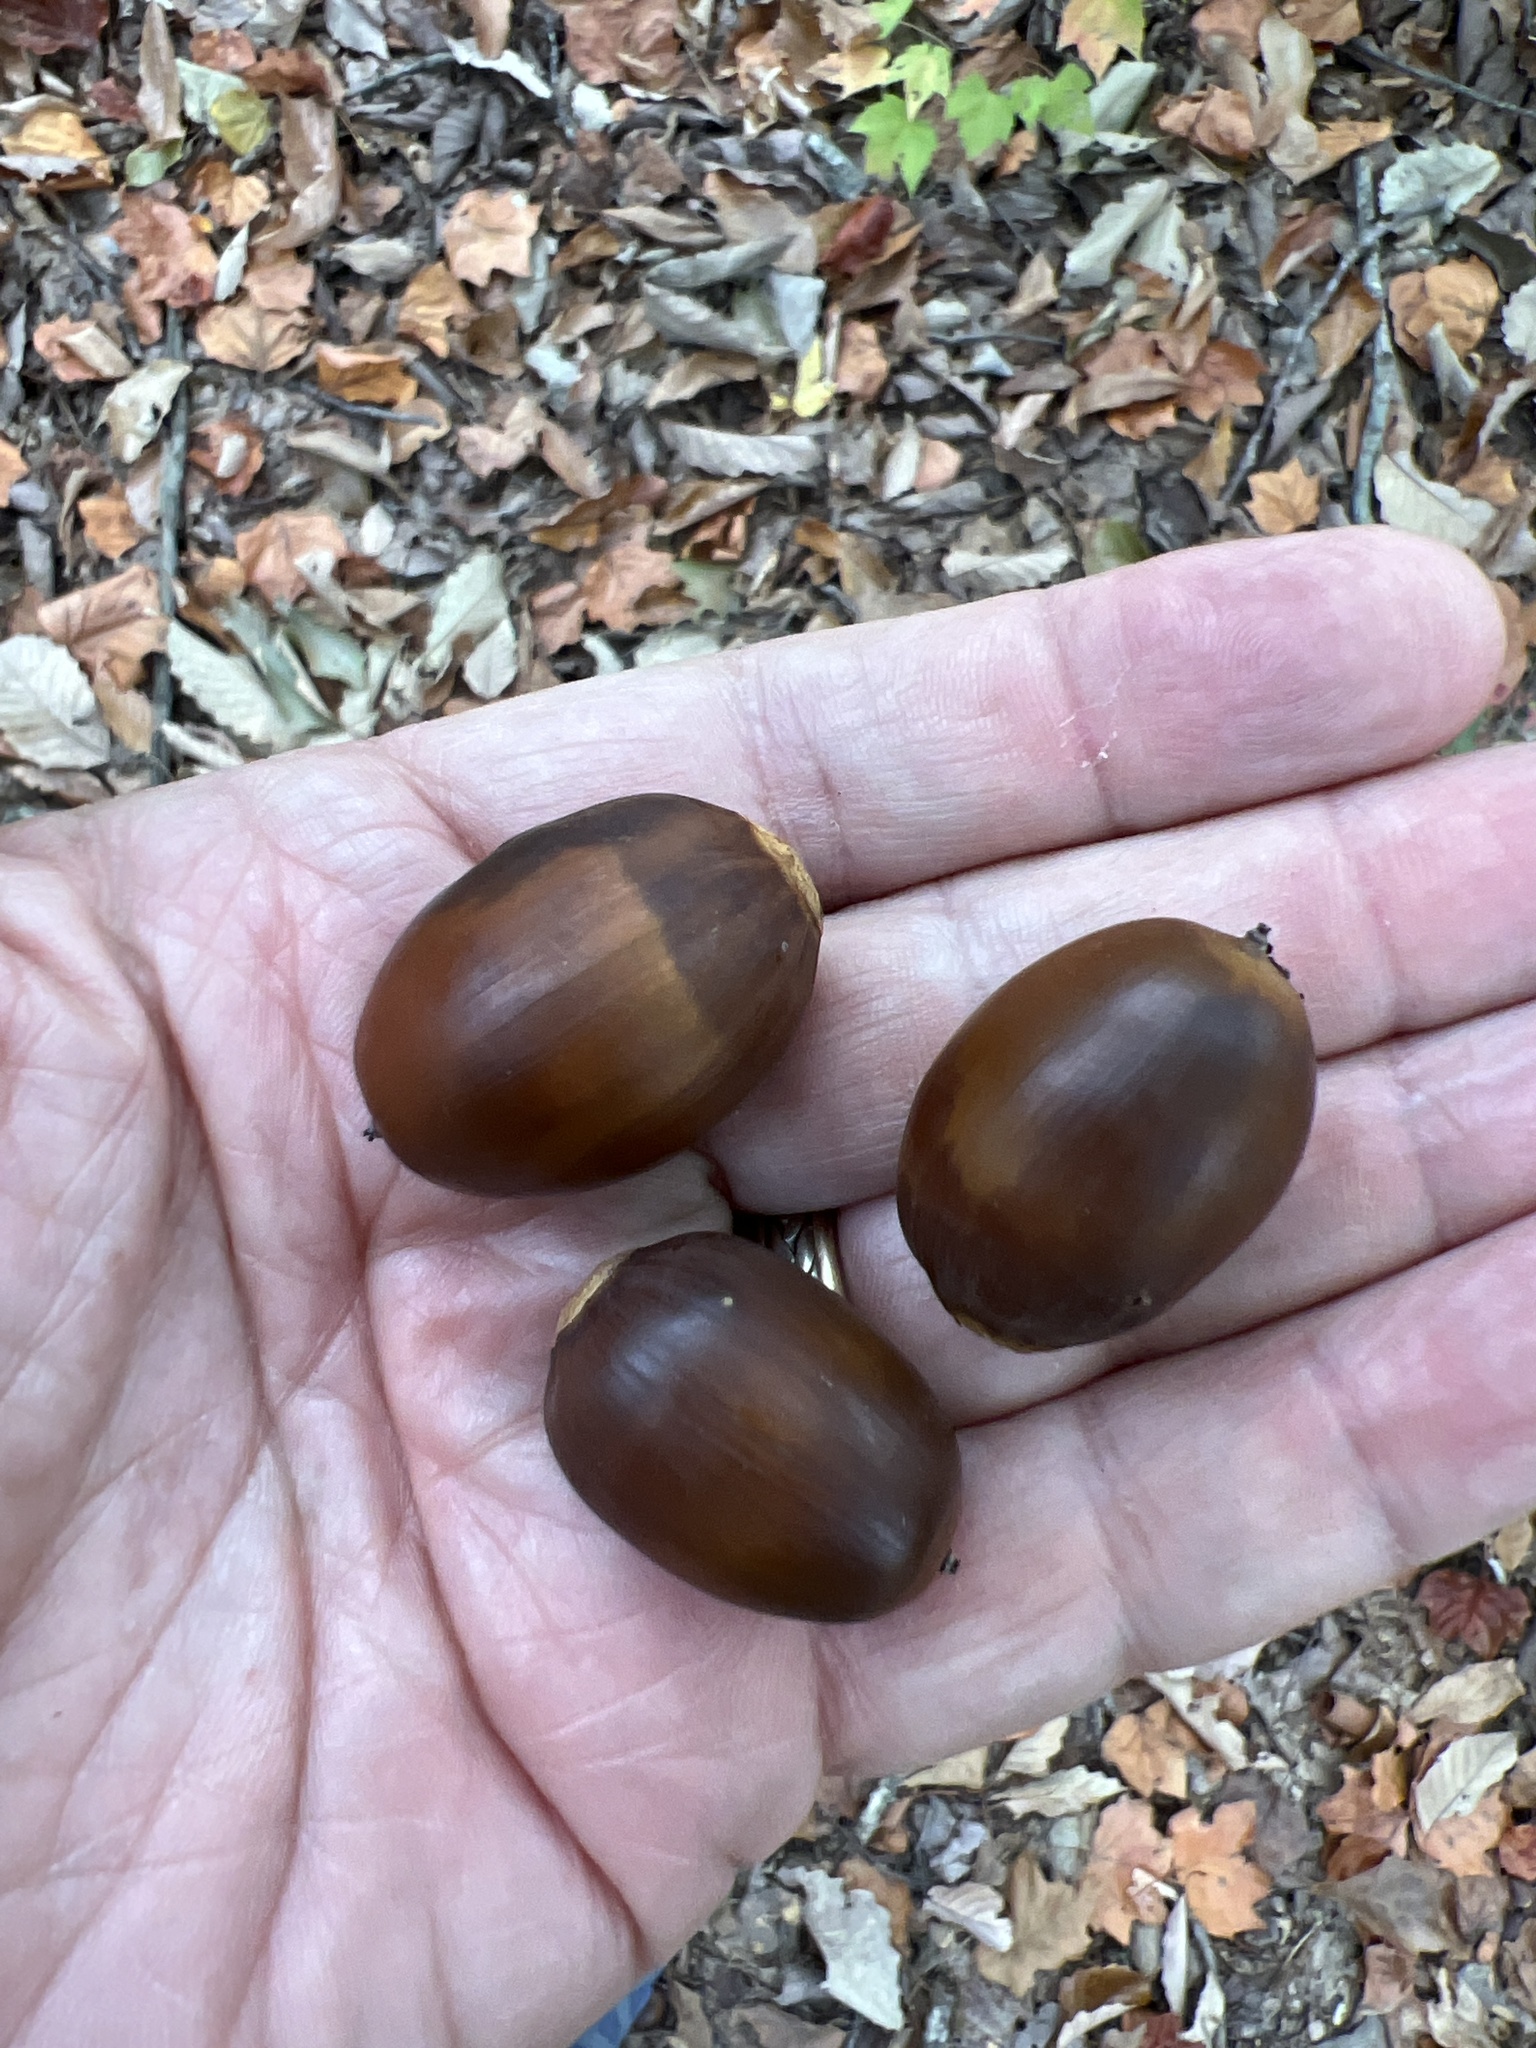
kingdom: Plantae
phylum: Tracheophyta
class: Magnoliopsida
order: Fagales
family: Fagaceae
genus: Quercus
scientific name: Quercus montana
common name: Chestnut oak
